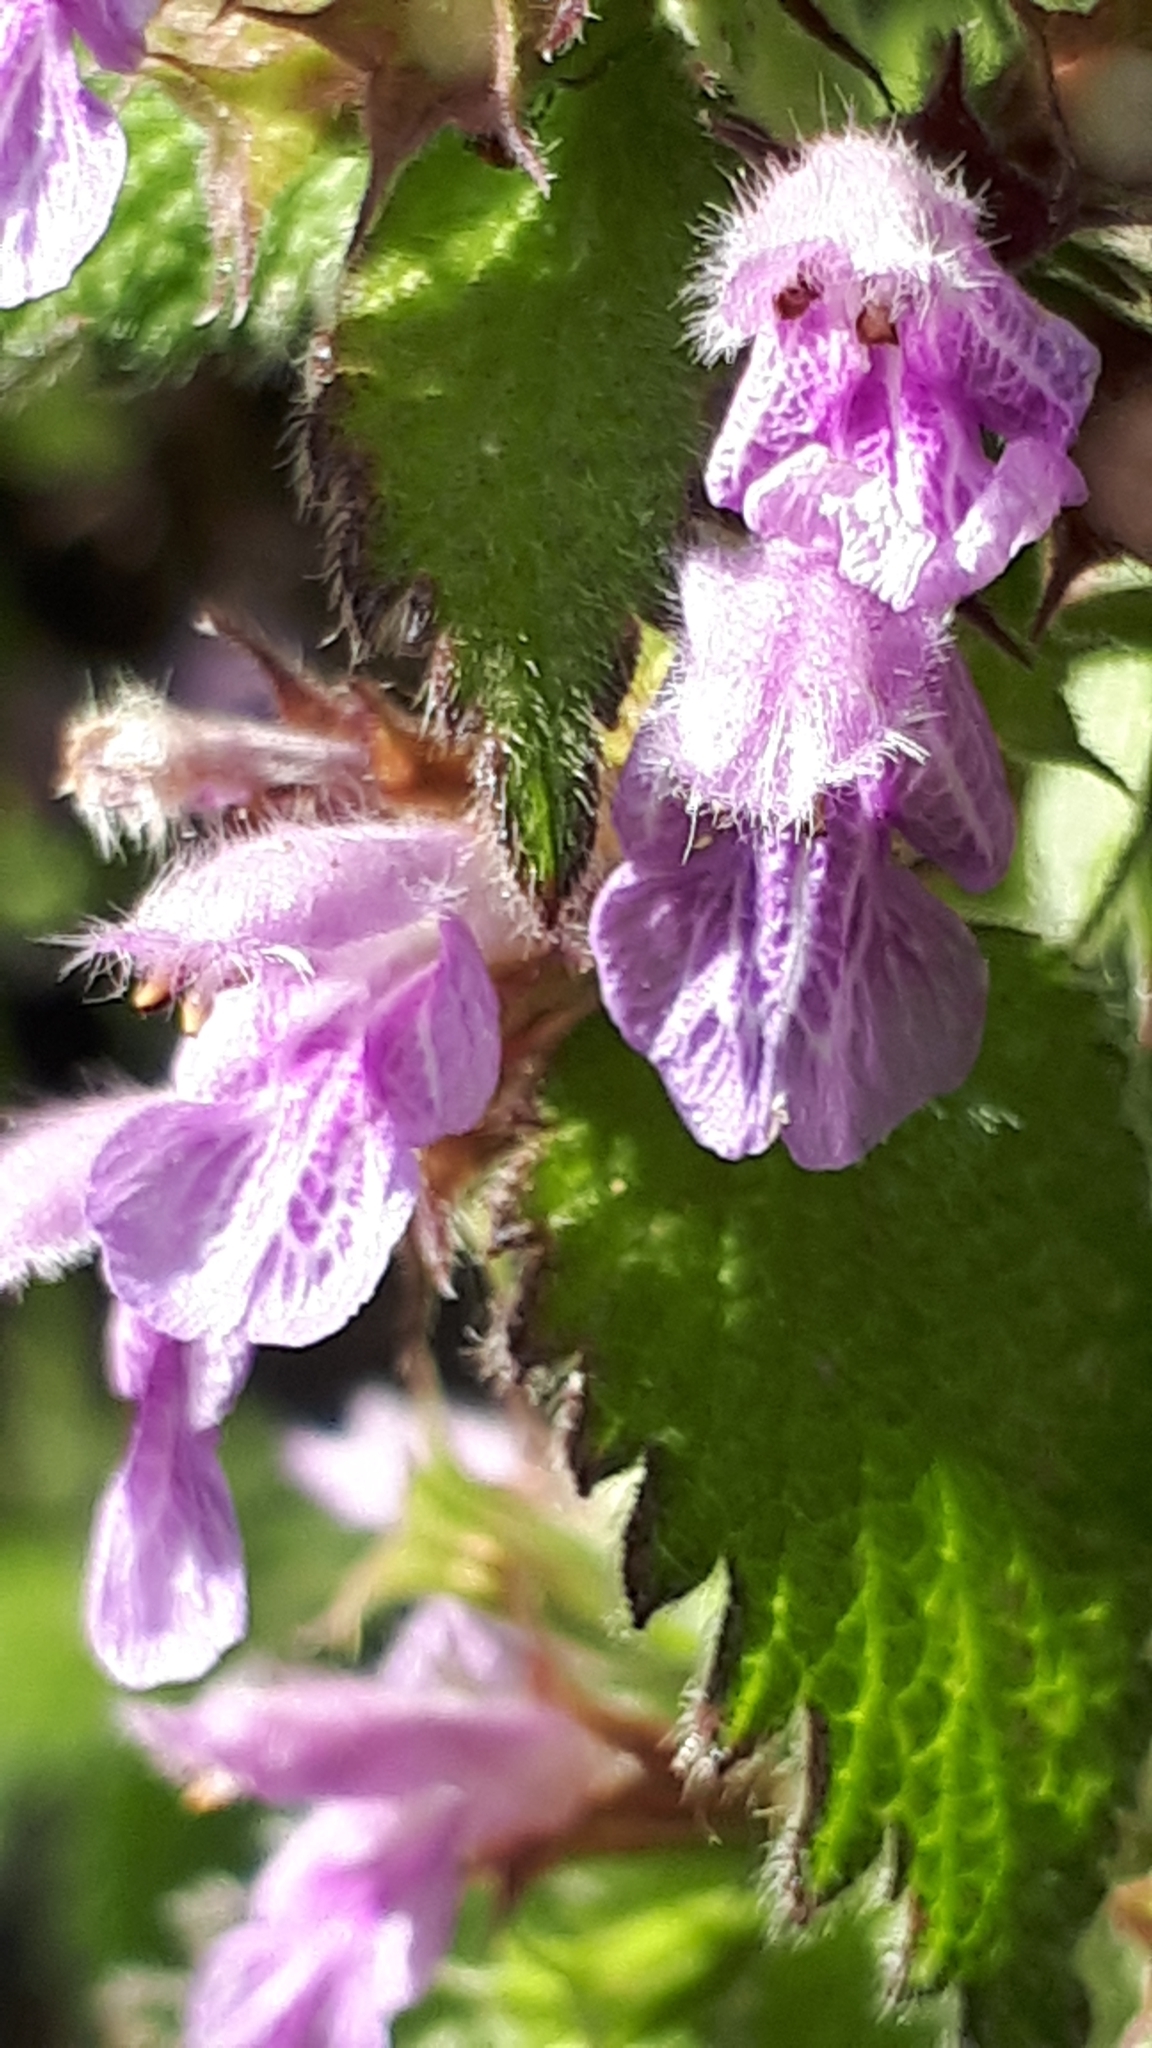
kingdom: Plantae
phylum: Tracheophyta
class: Magnoliopsida
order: Lamiales
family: Lamiaceae
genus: Ballota
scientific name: Ballota nigra
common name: Black horehound
